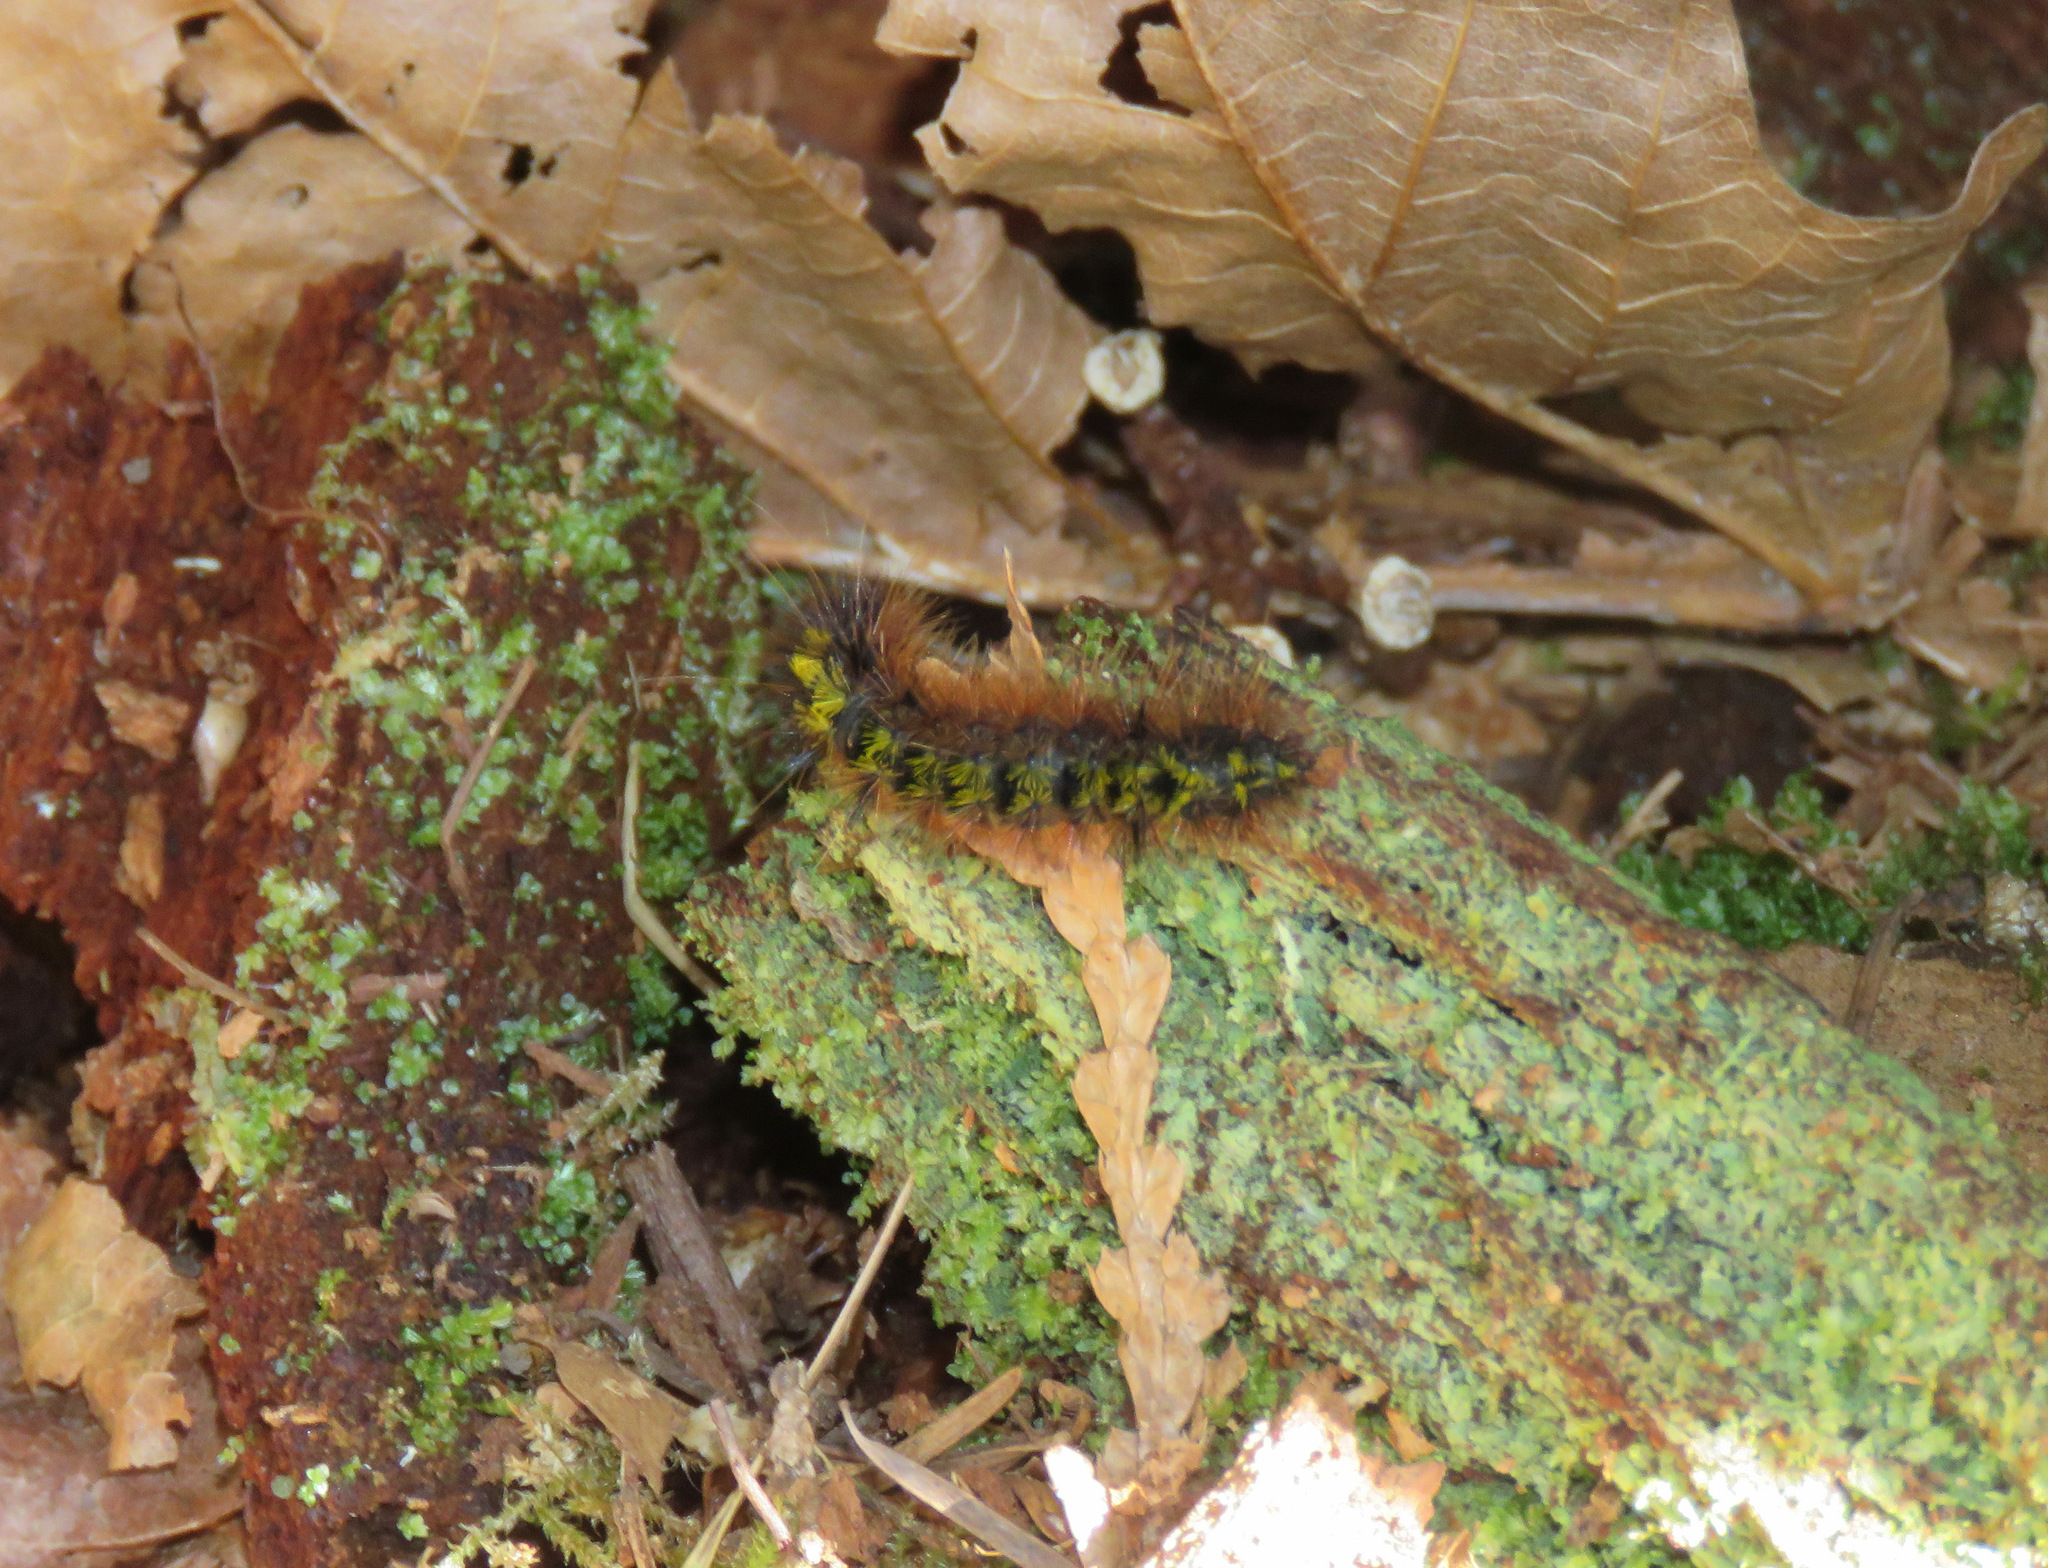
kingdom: Animalia
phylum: Arthropoda
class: Insecta
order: Lepidoptera
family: Erebidae
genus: Lophocampa
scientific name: Lophocampa argentata
